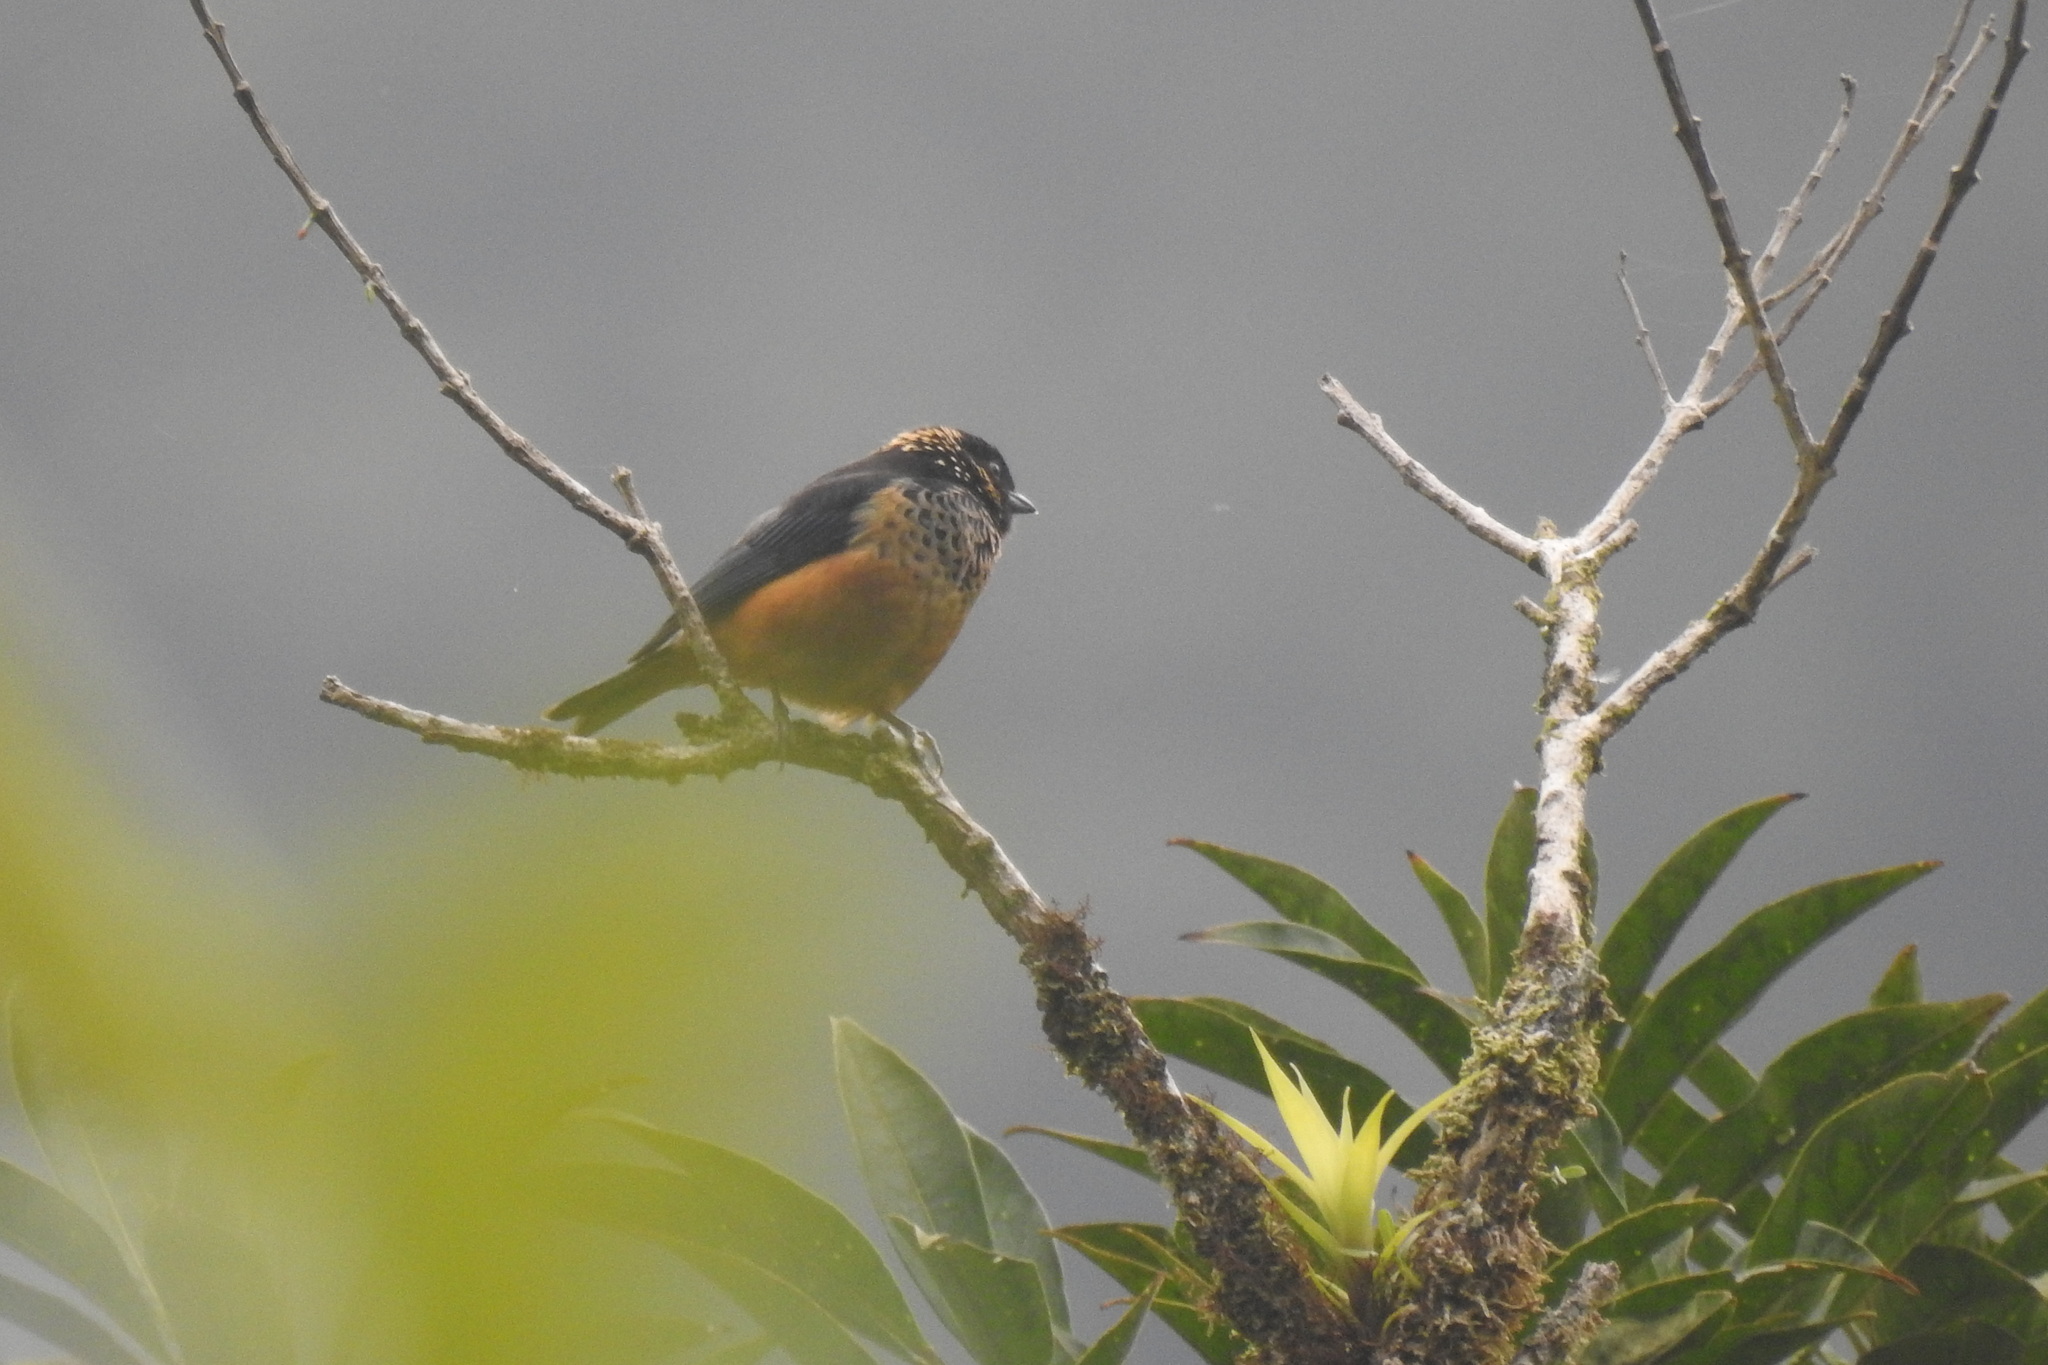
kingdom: Animalia
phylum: Chordata
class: Aves
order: Passeriformes
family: Thraupidae
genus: Tangara
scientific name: Tangara dowii
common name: Spangle-cheeked tanager
